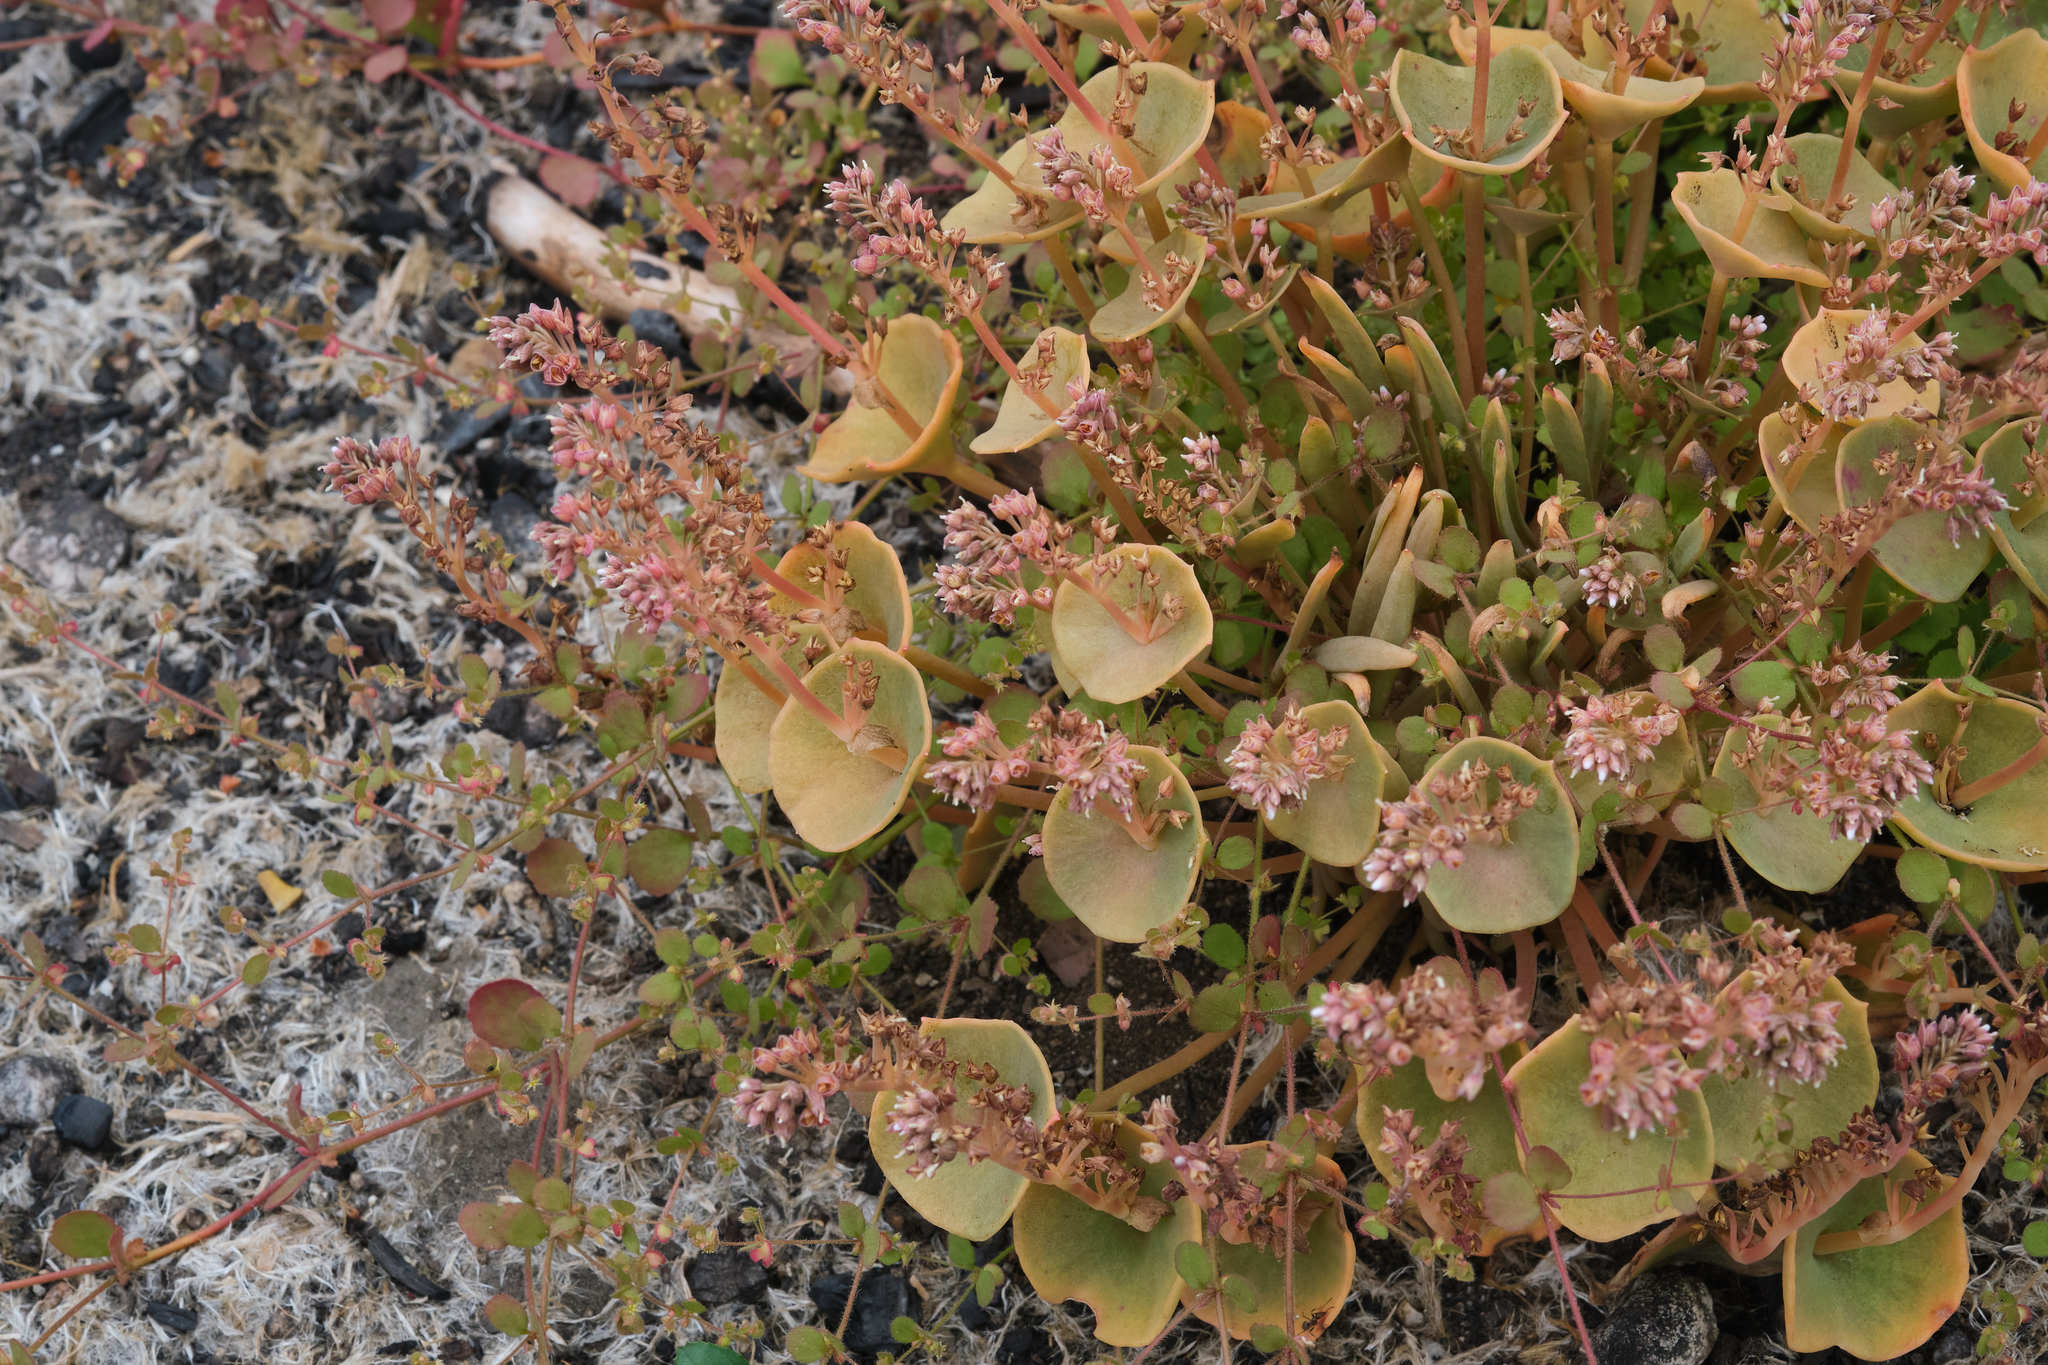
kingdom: Plantae
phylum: Tracheophyta
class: Magnoliopsida
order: Caryophyllales
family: Montiaceae
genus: Claytonia
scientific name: Claytonia perfoliata
